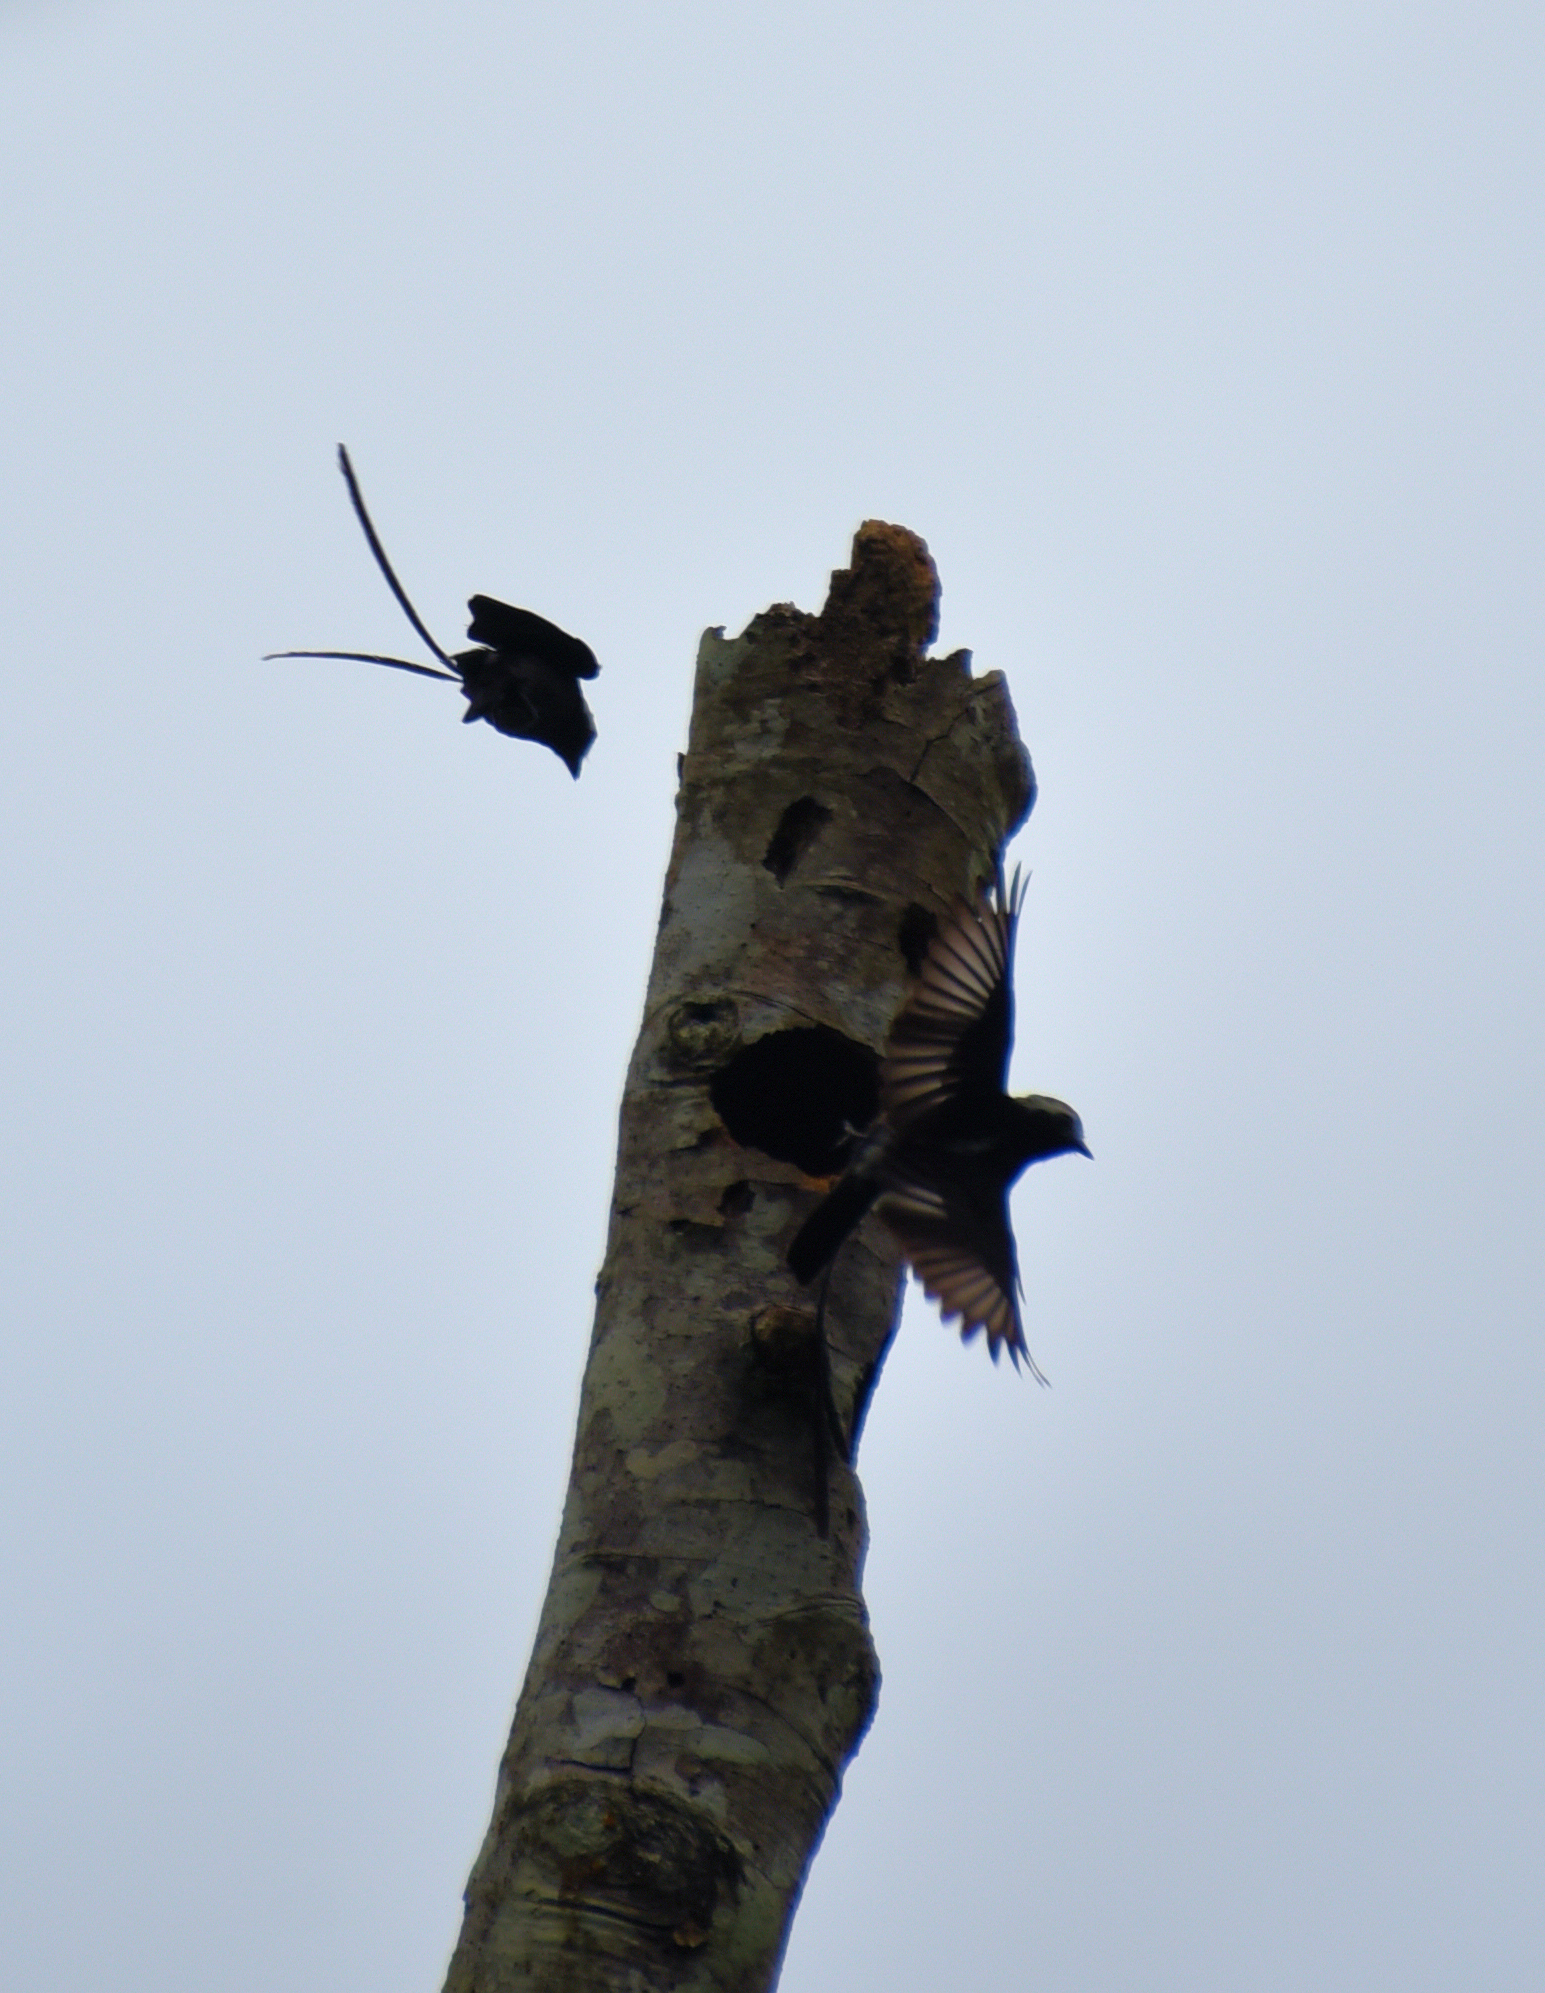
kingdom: Animalia
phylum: Chordata
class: Aves
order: Passeriformes
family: Tyrannidae
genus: Colonia
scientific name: Colonia colonus
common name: Long-tailed tyrant
